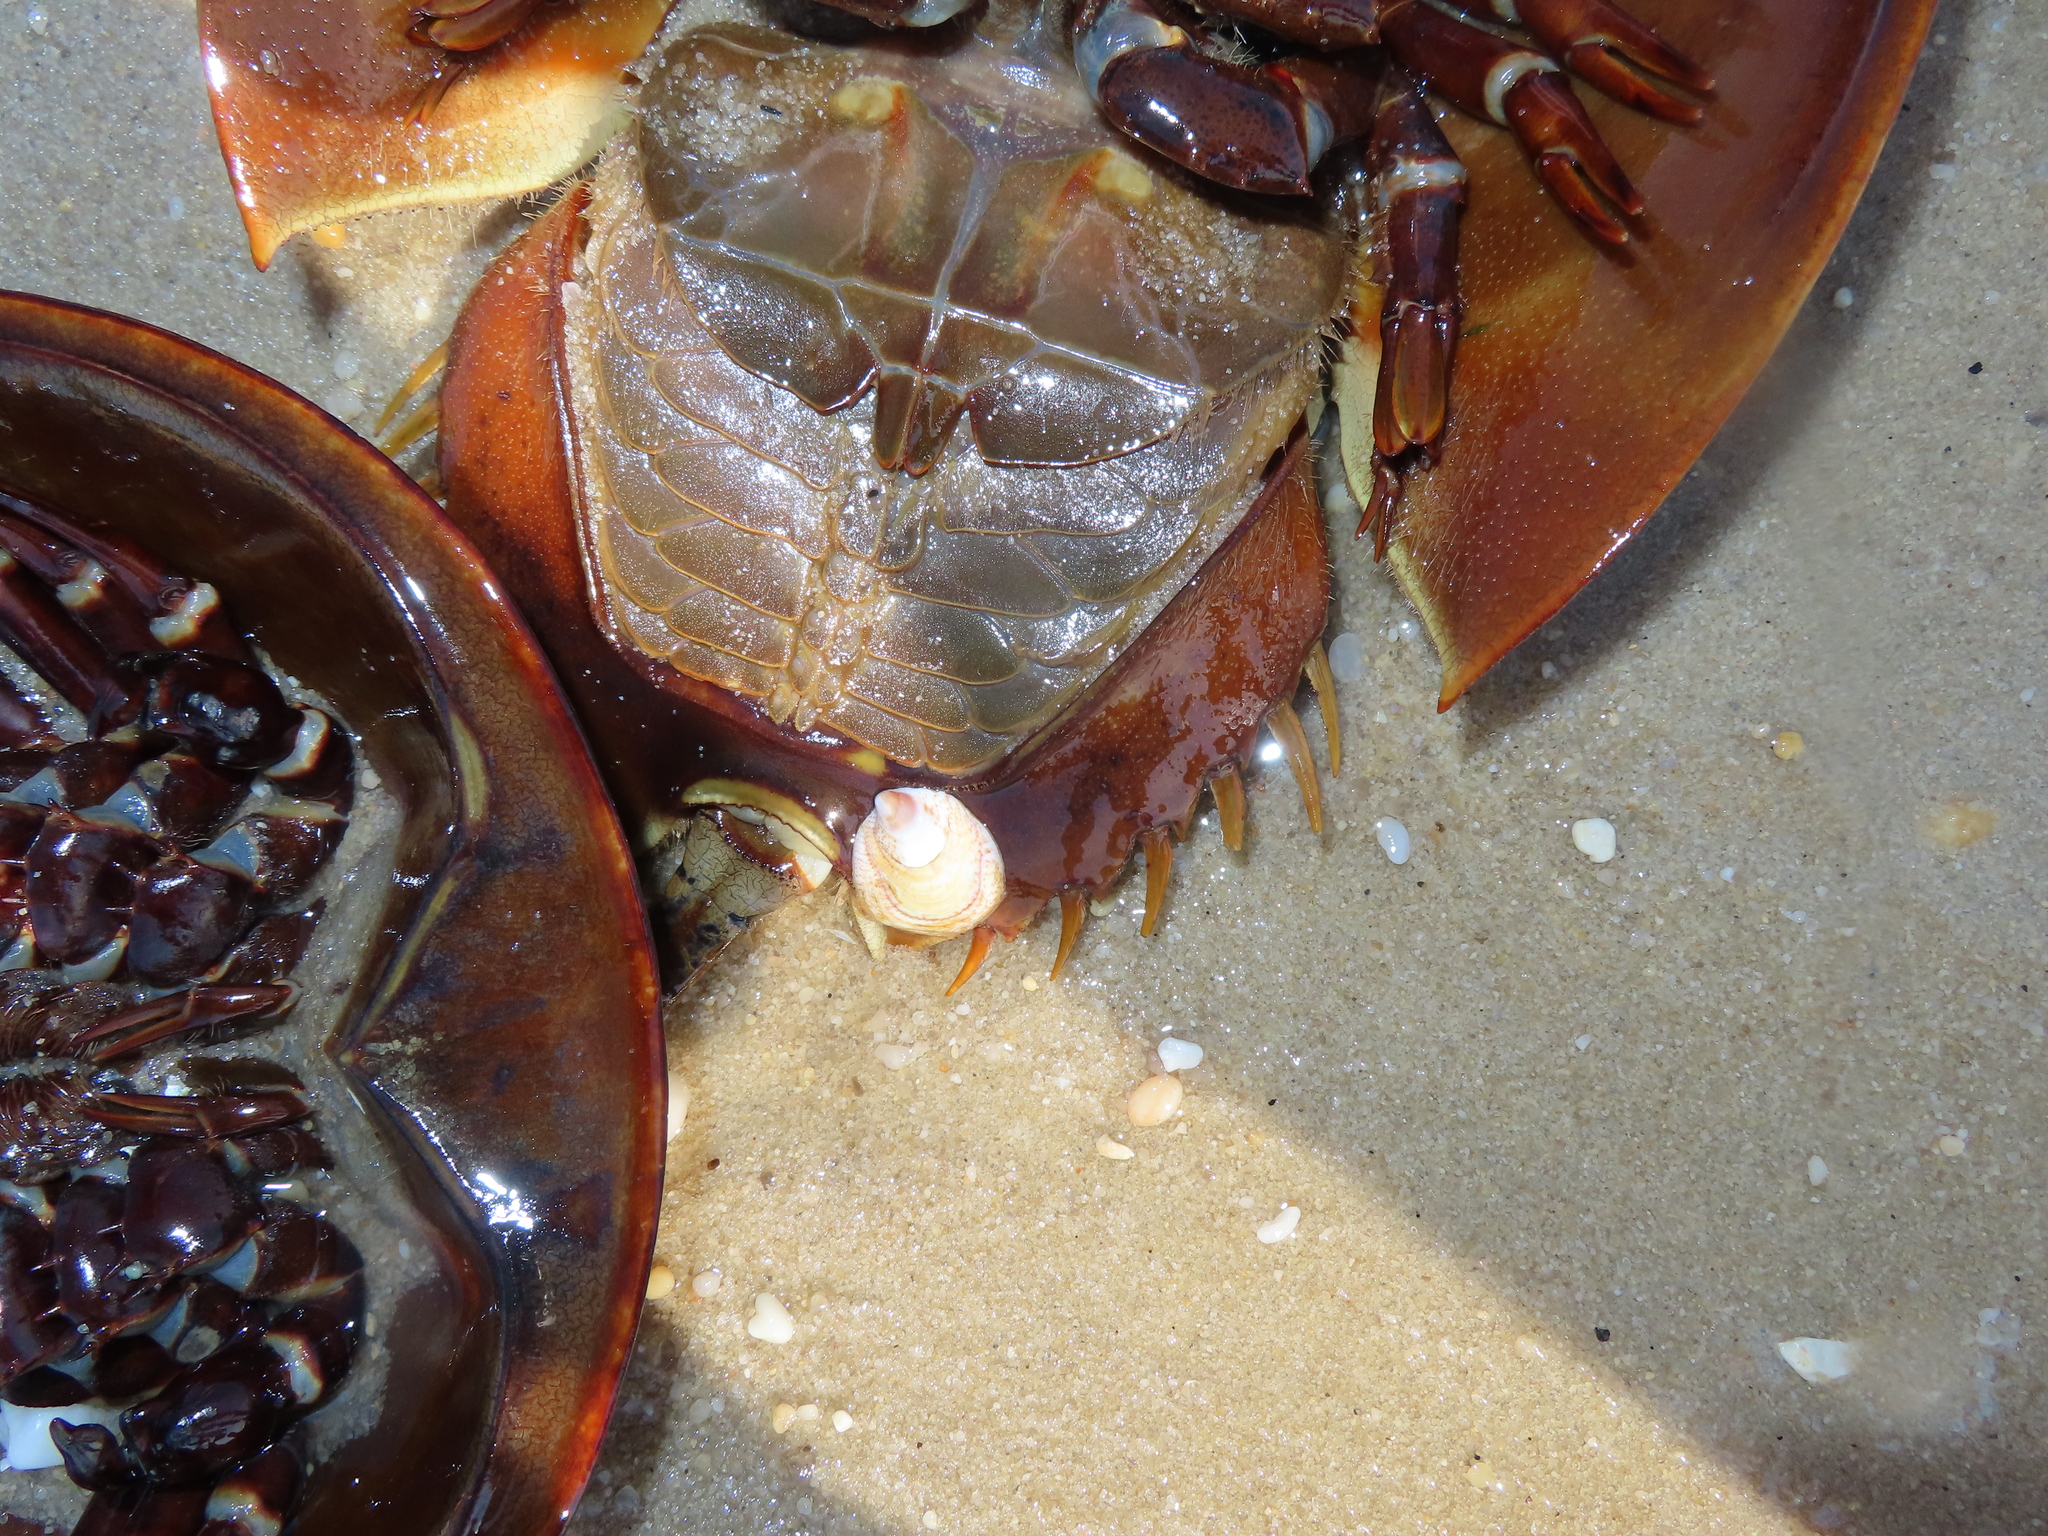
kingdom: Animalia
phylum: Arthropoda
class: Merostomata
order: Xiphosurida
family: Limulidae
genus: Limulus
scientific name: Limulus polyphemus
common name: Horseshoe crab
